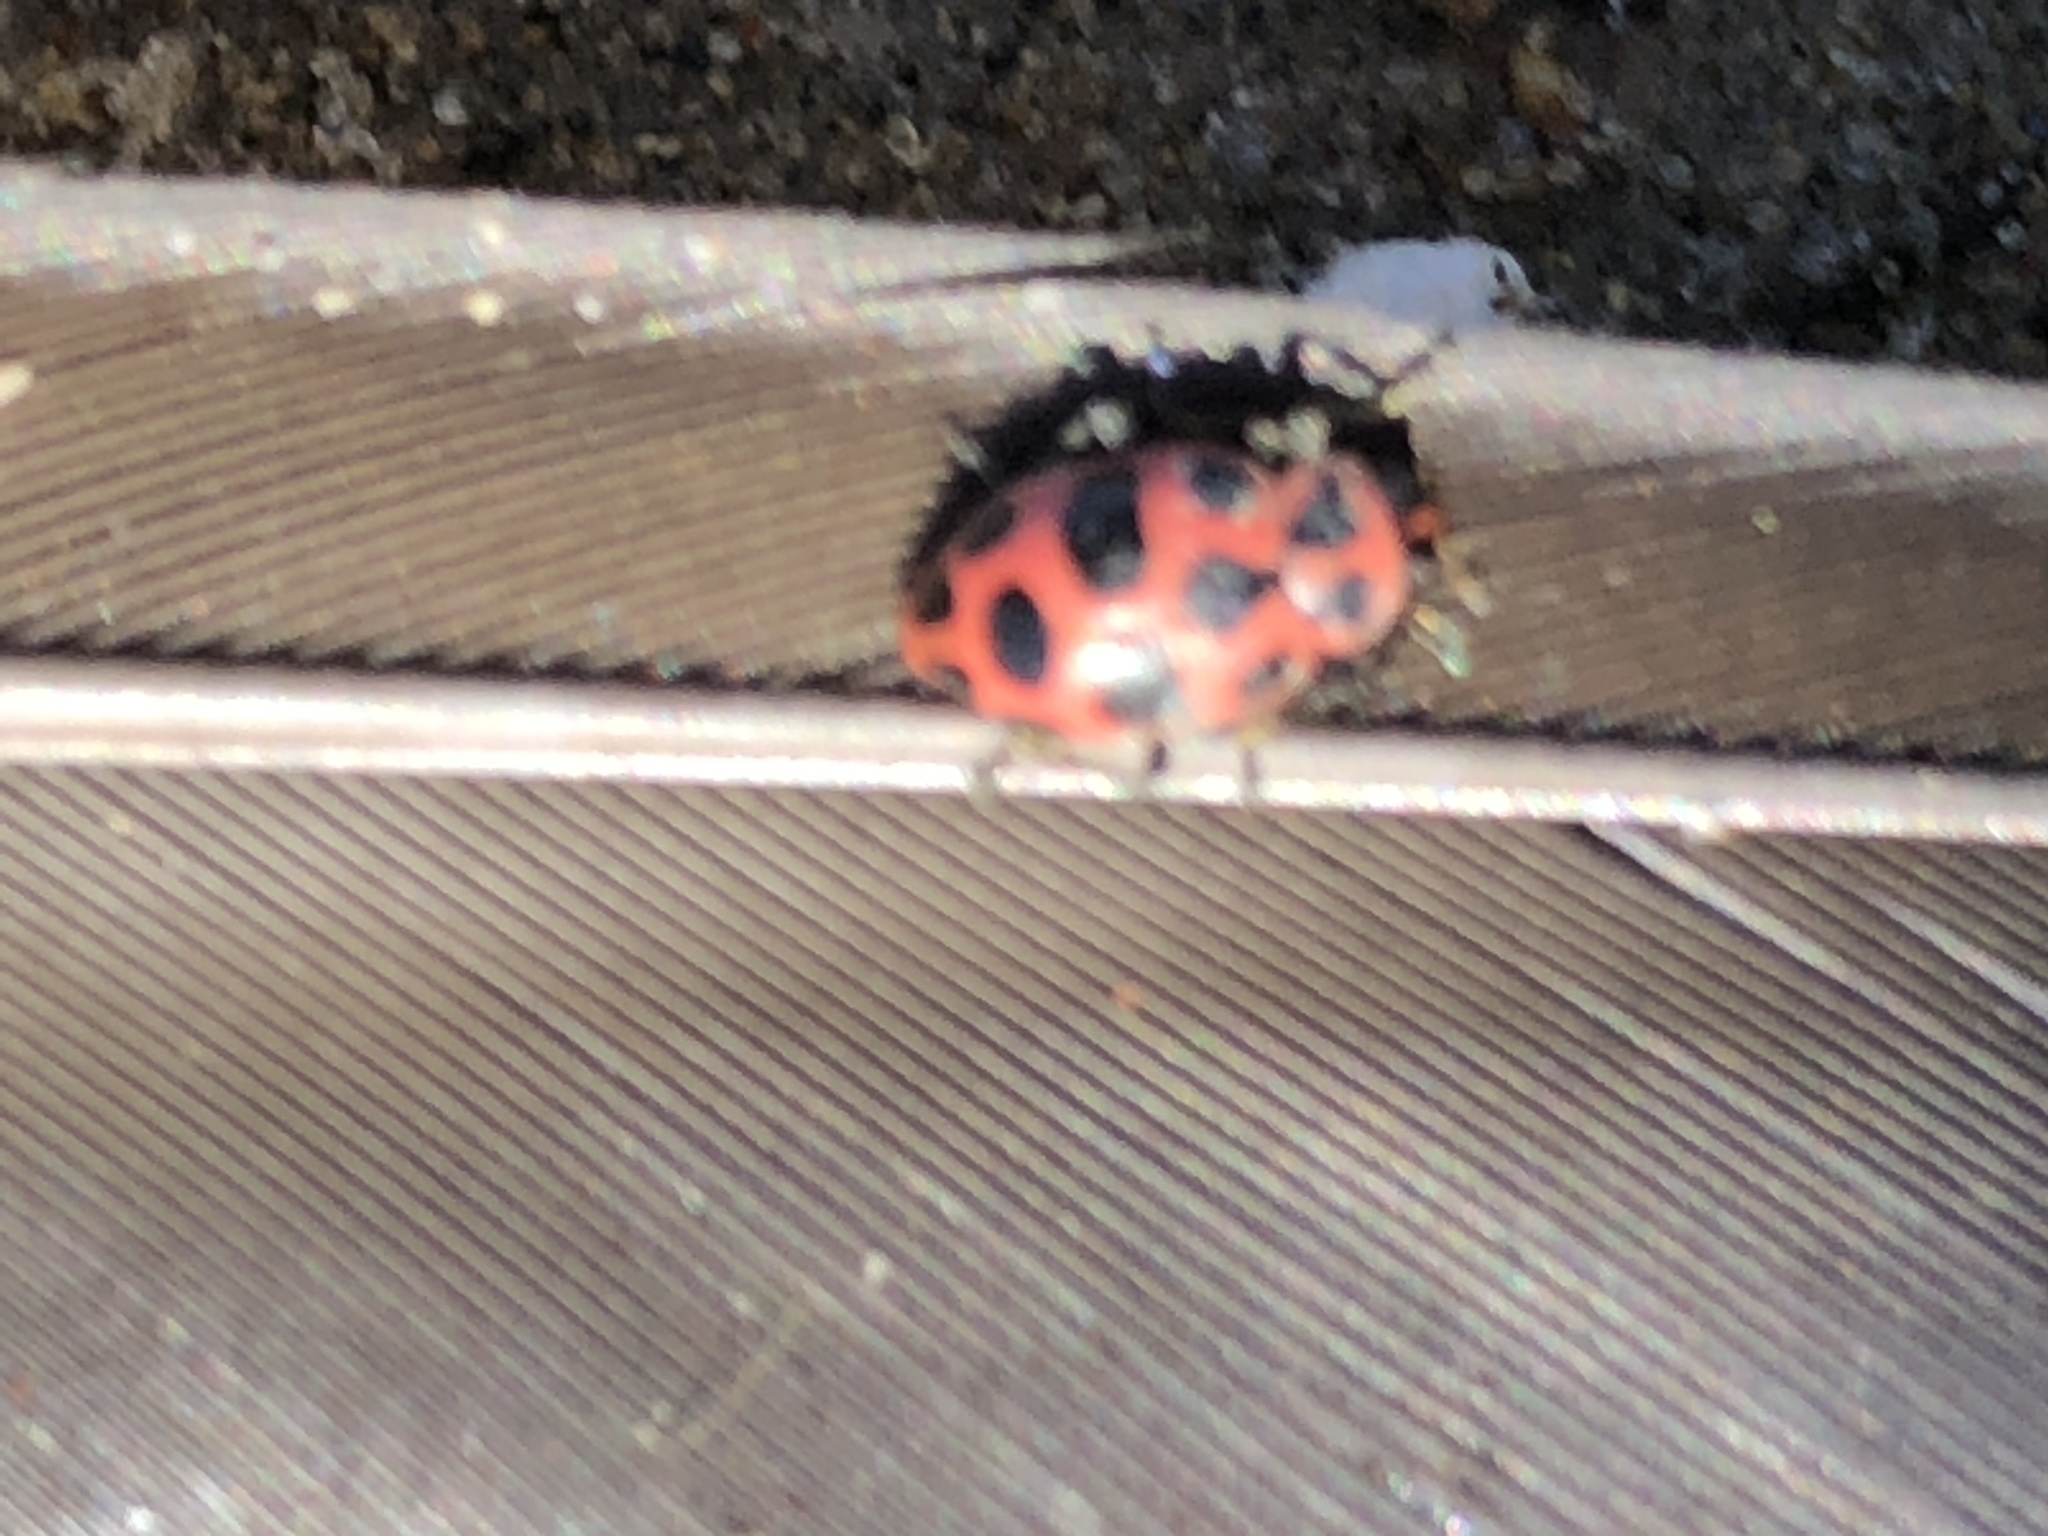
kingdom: Animalia
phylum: Arthropoda
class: Insecta
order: Coleoptera
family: Coccinellidae
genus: Coleomegilla
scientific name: Coleomegilla maculata
